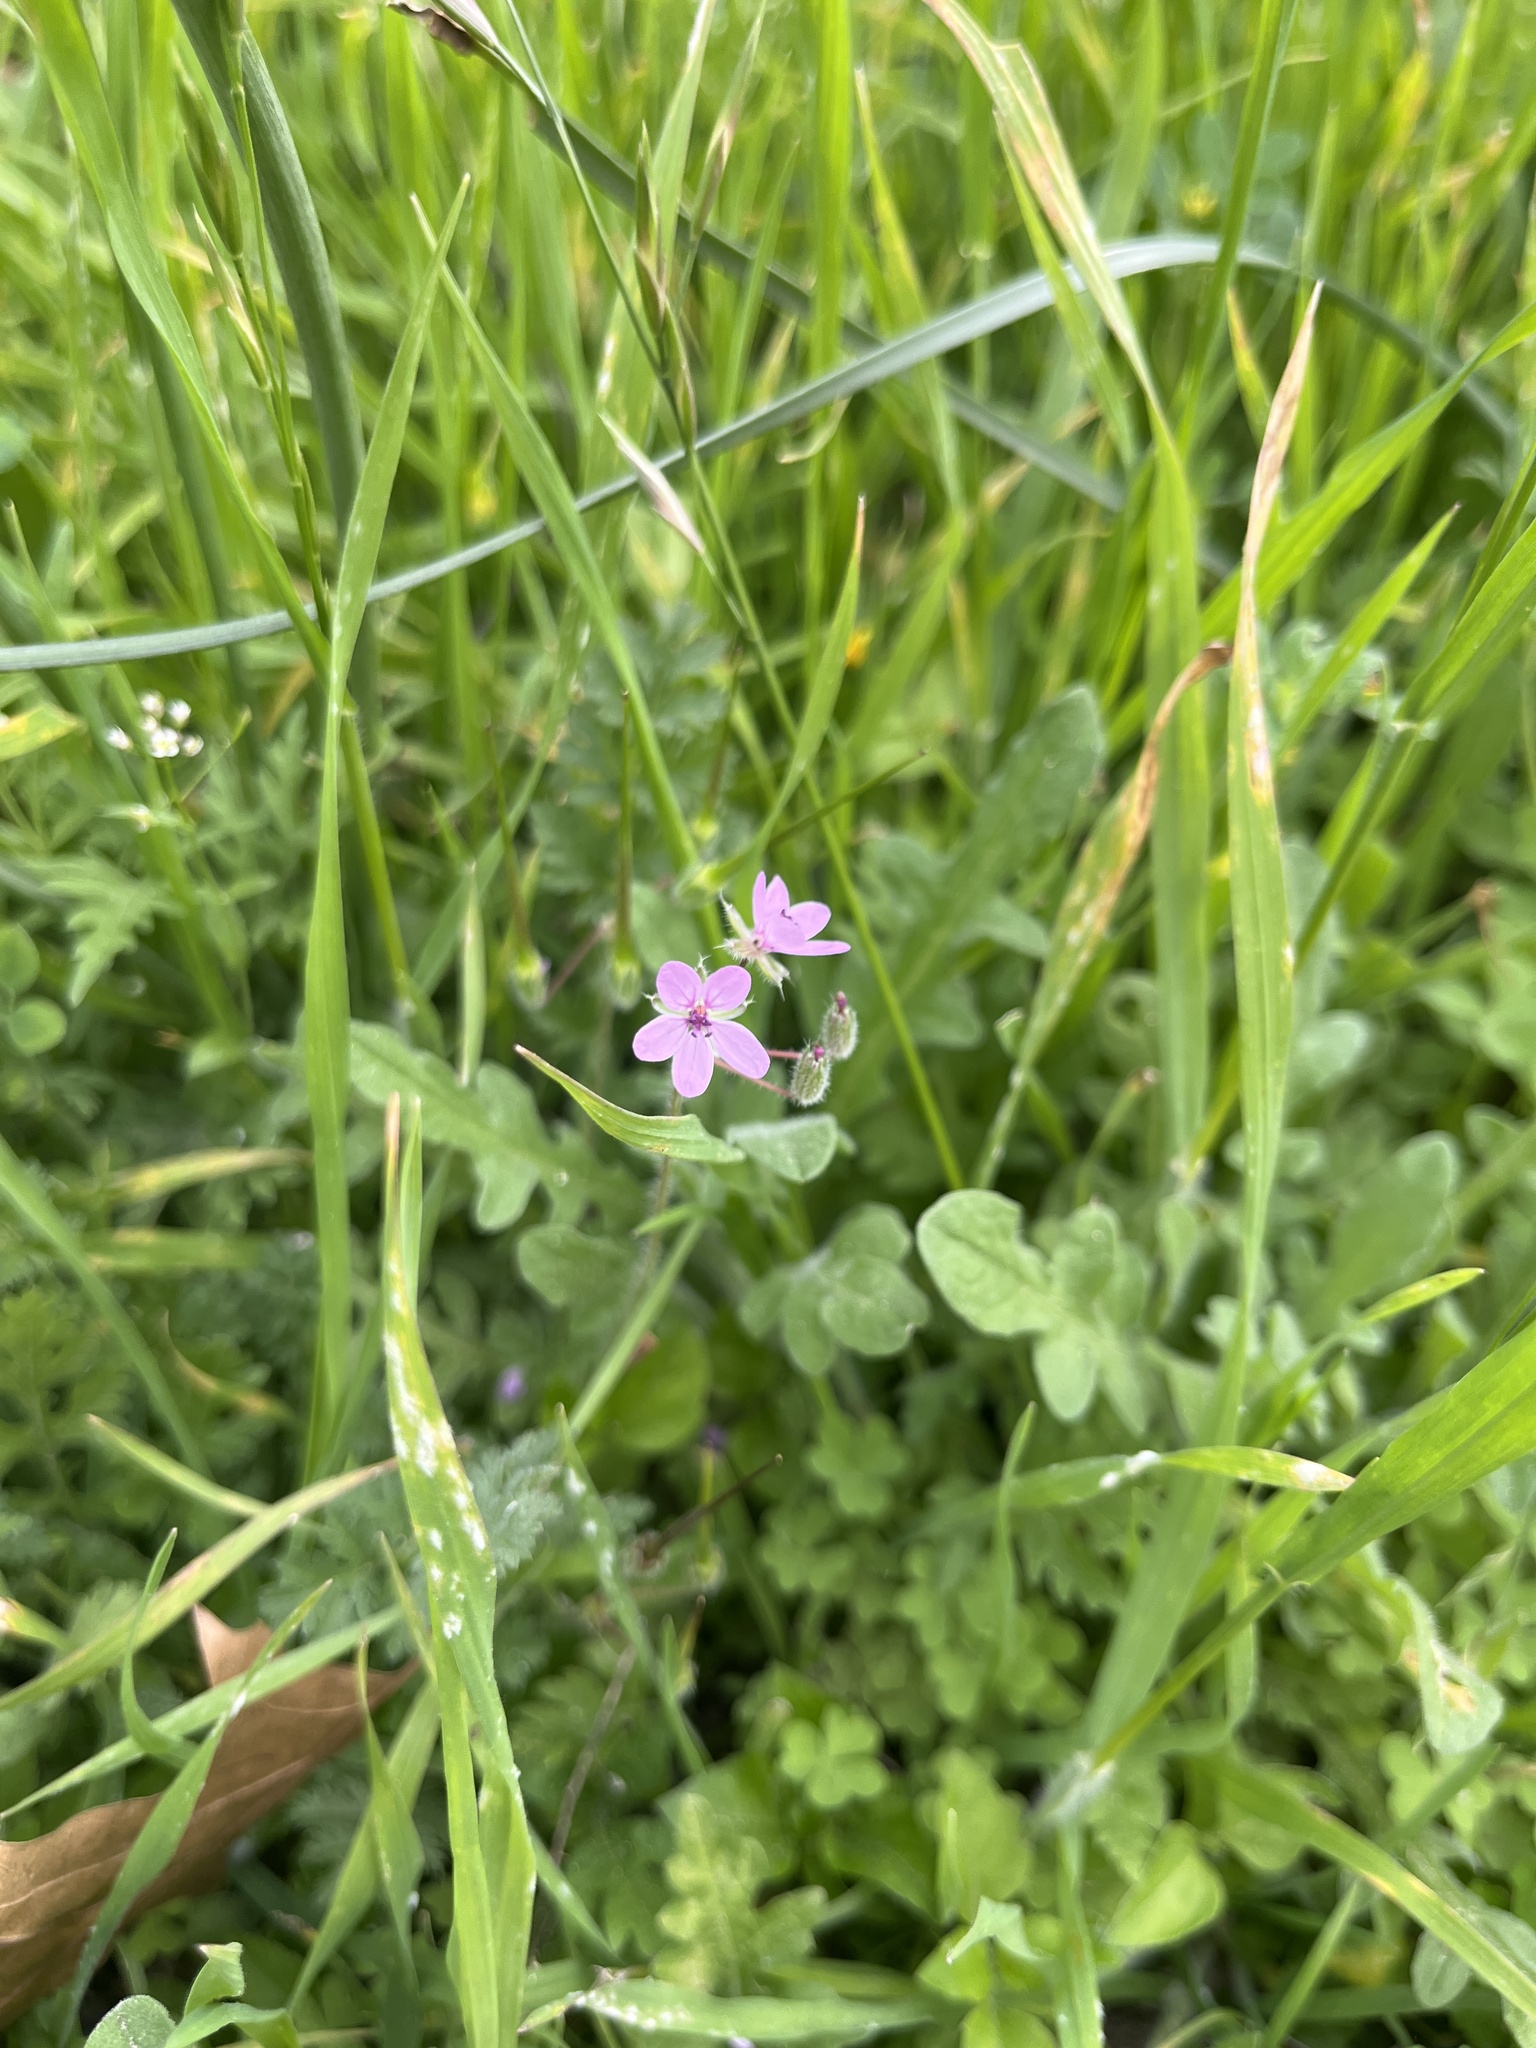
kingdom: Plantae
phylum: Tracheophyta
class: Magnoliopsida
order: Geraniales
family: Geraniaceae
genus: Erodium
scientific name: Erodium cicutarium
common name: Common stork's-bill
